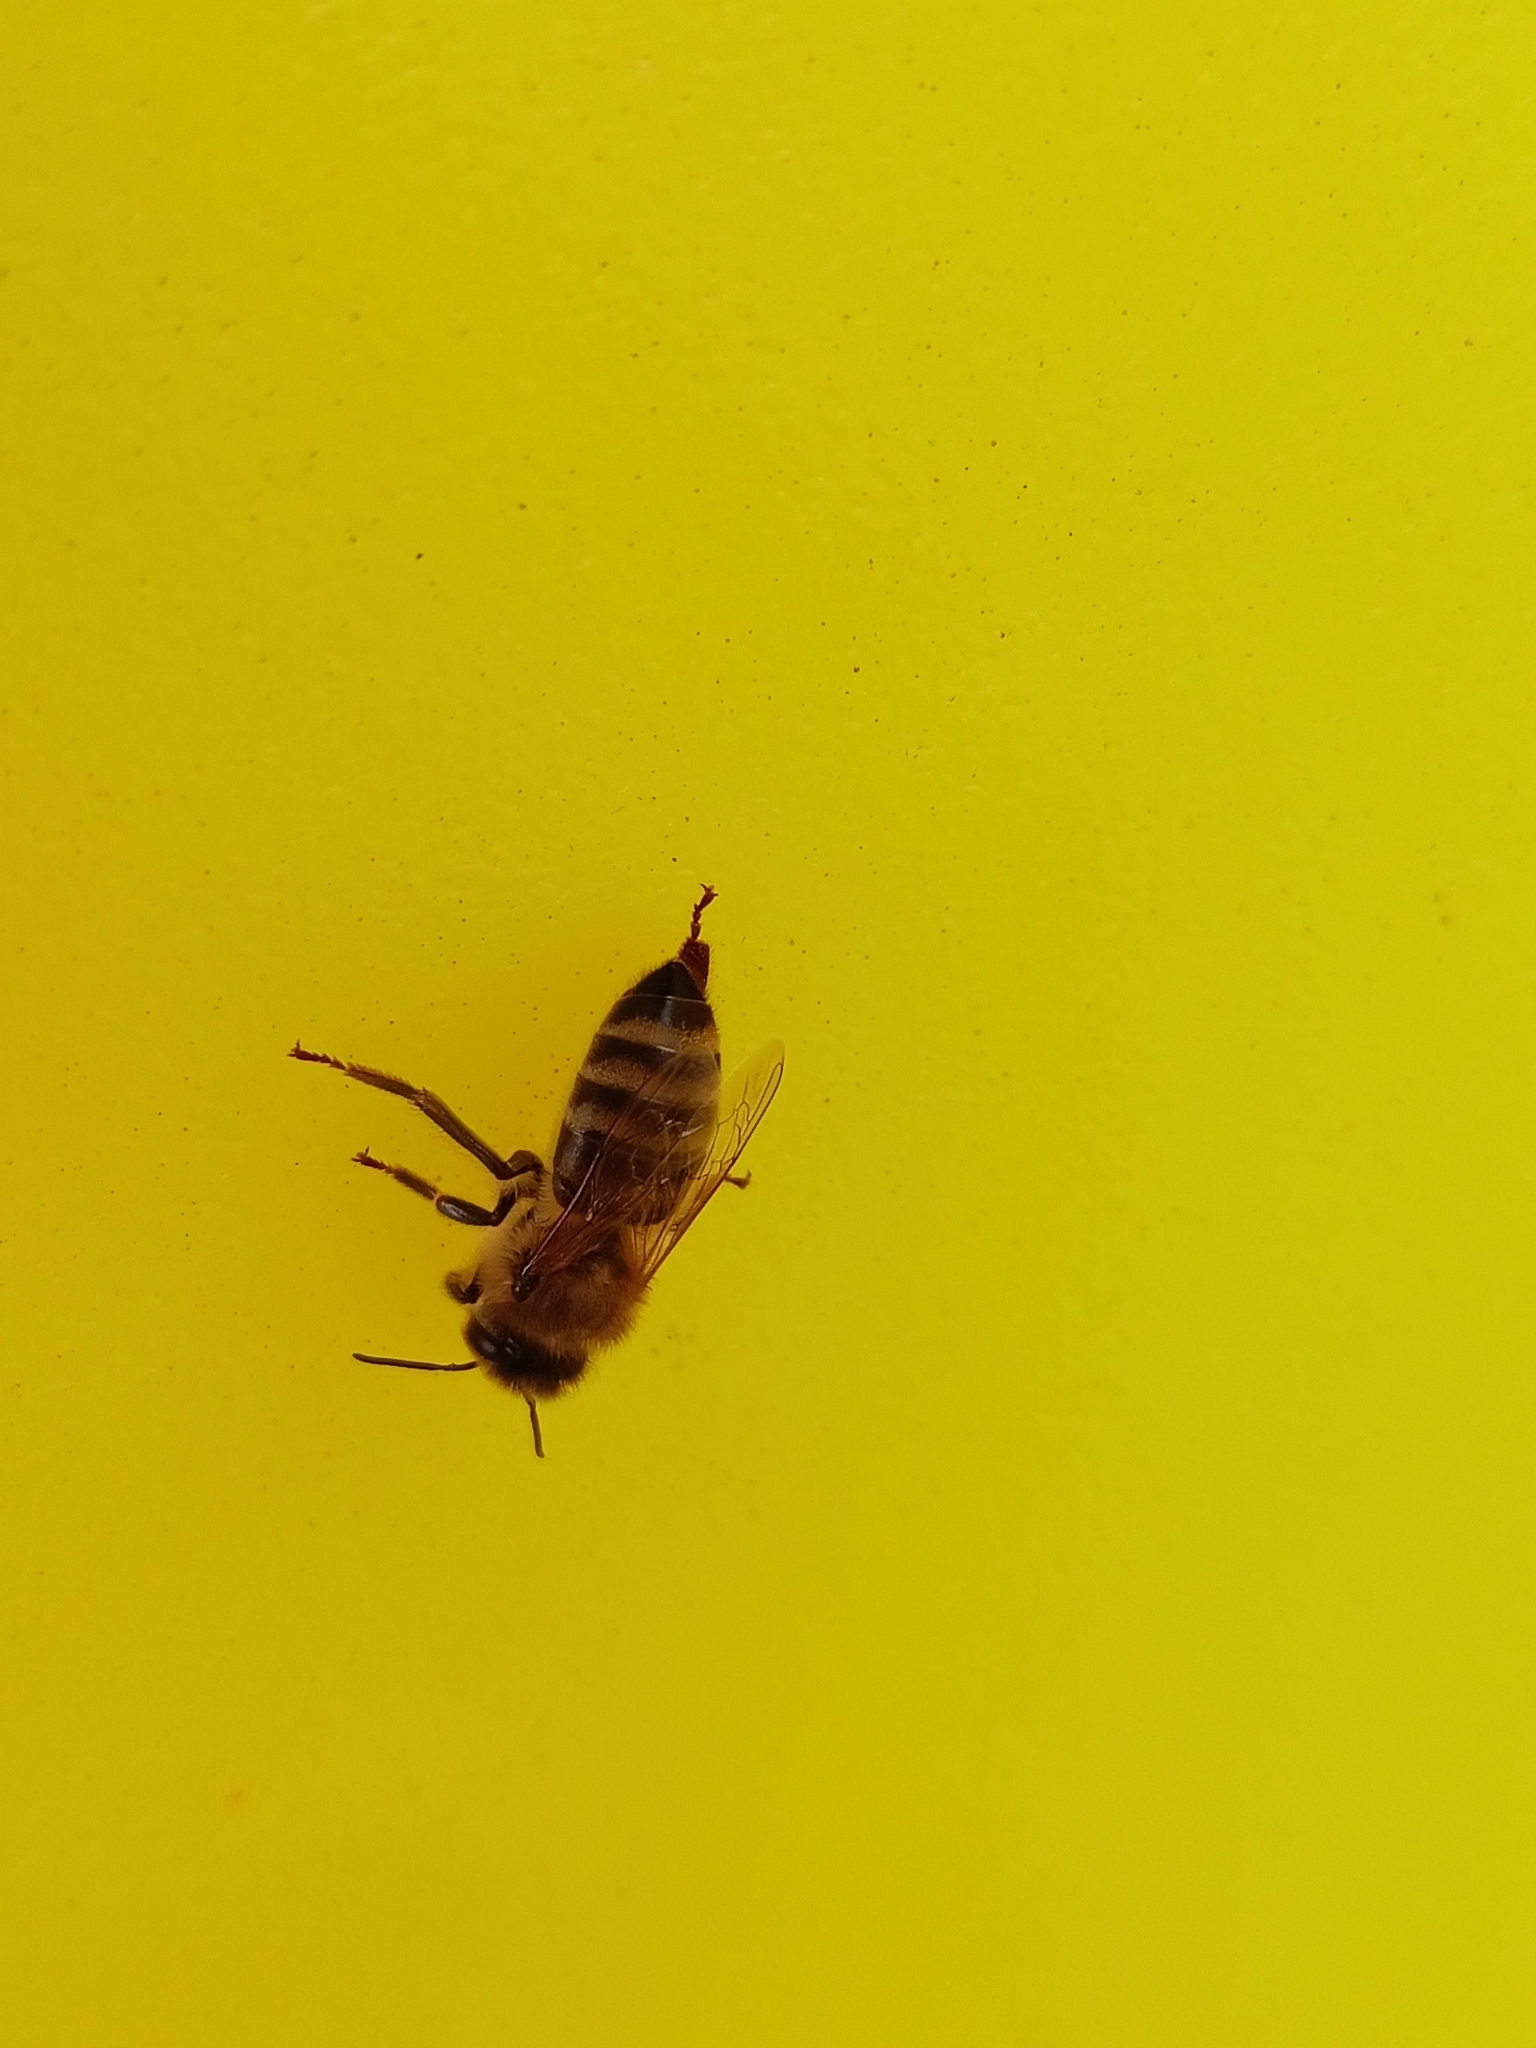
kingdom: Animalia
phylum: Arthropoda
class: Insecta
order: Hymenoptera
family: Apidae
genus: Apis
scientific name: Apis mellifera
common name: Honey bee
